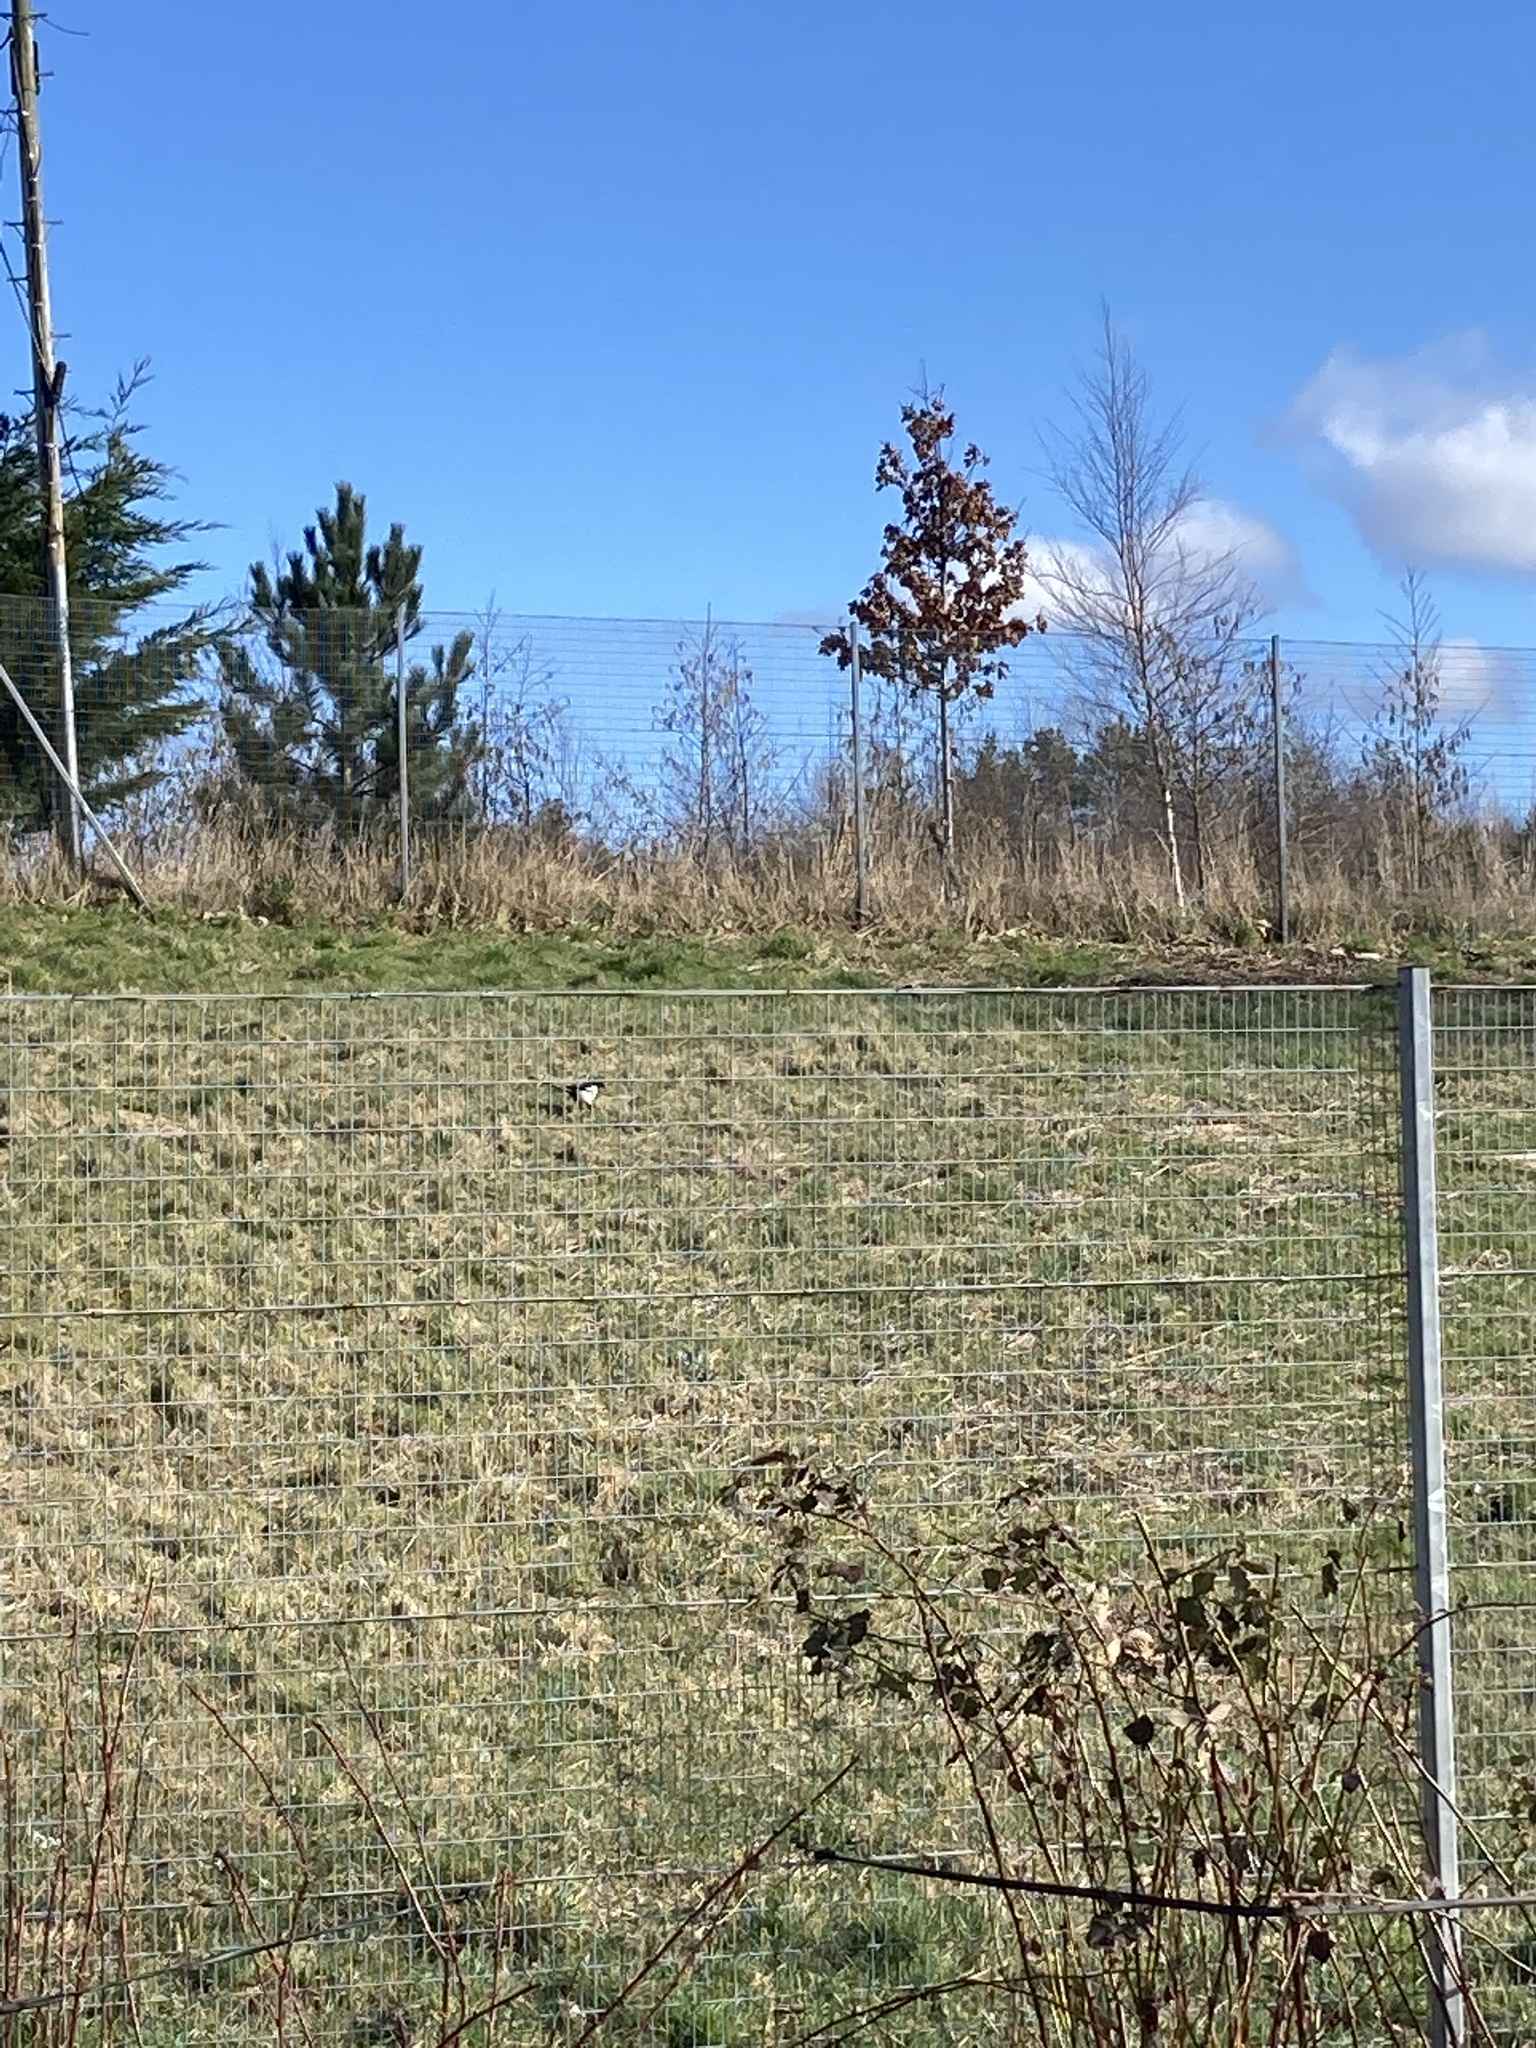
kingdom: Animalia
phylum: Chordata
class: Aves
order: Passeriformes
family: Corvidae
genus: Pica
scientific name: Pica pica
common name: Eurasian magpie
